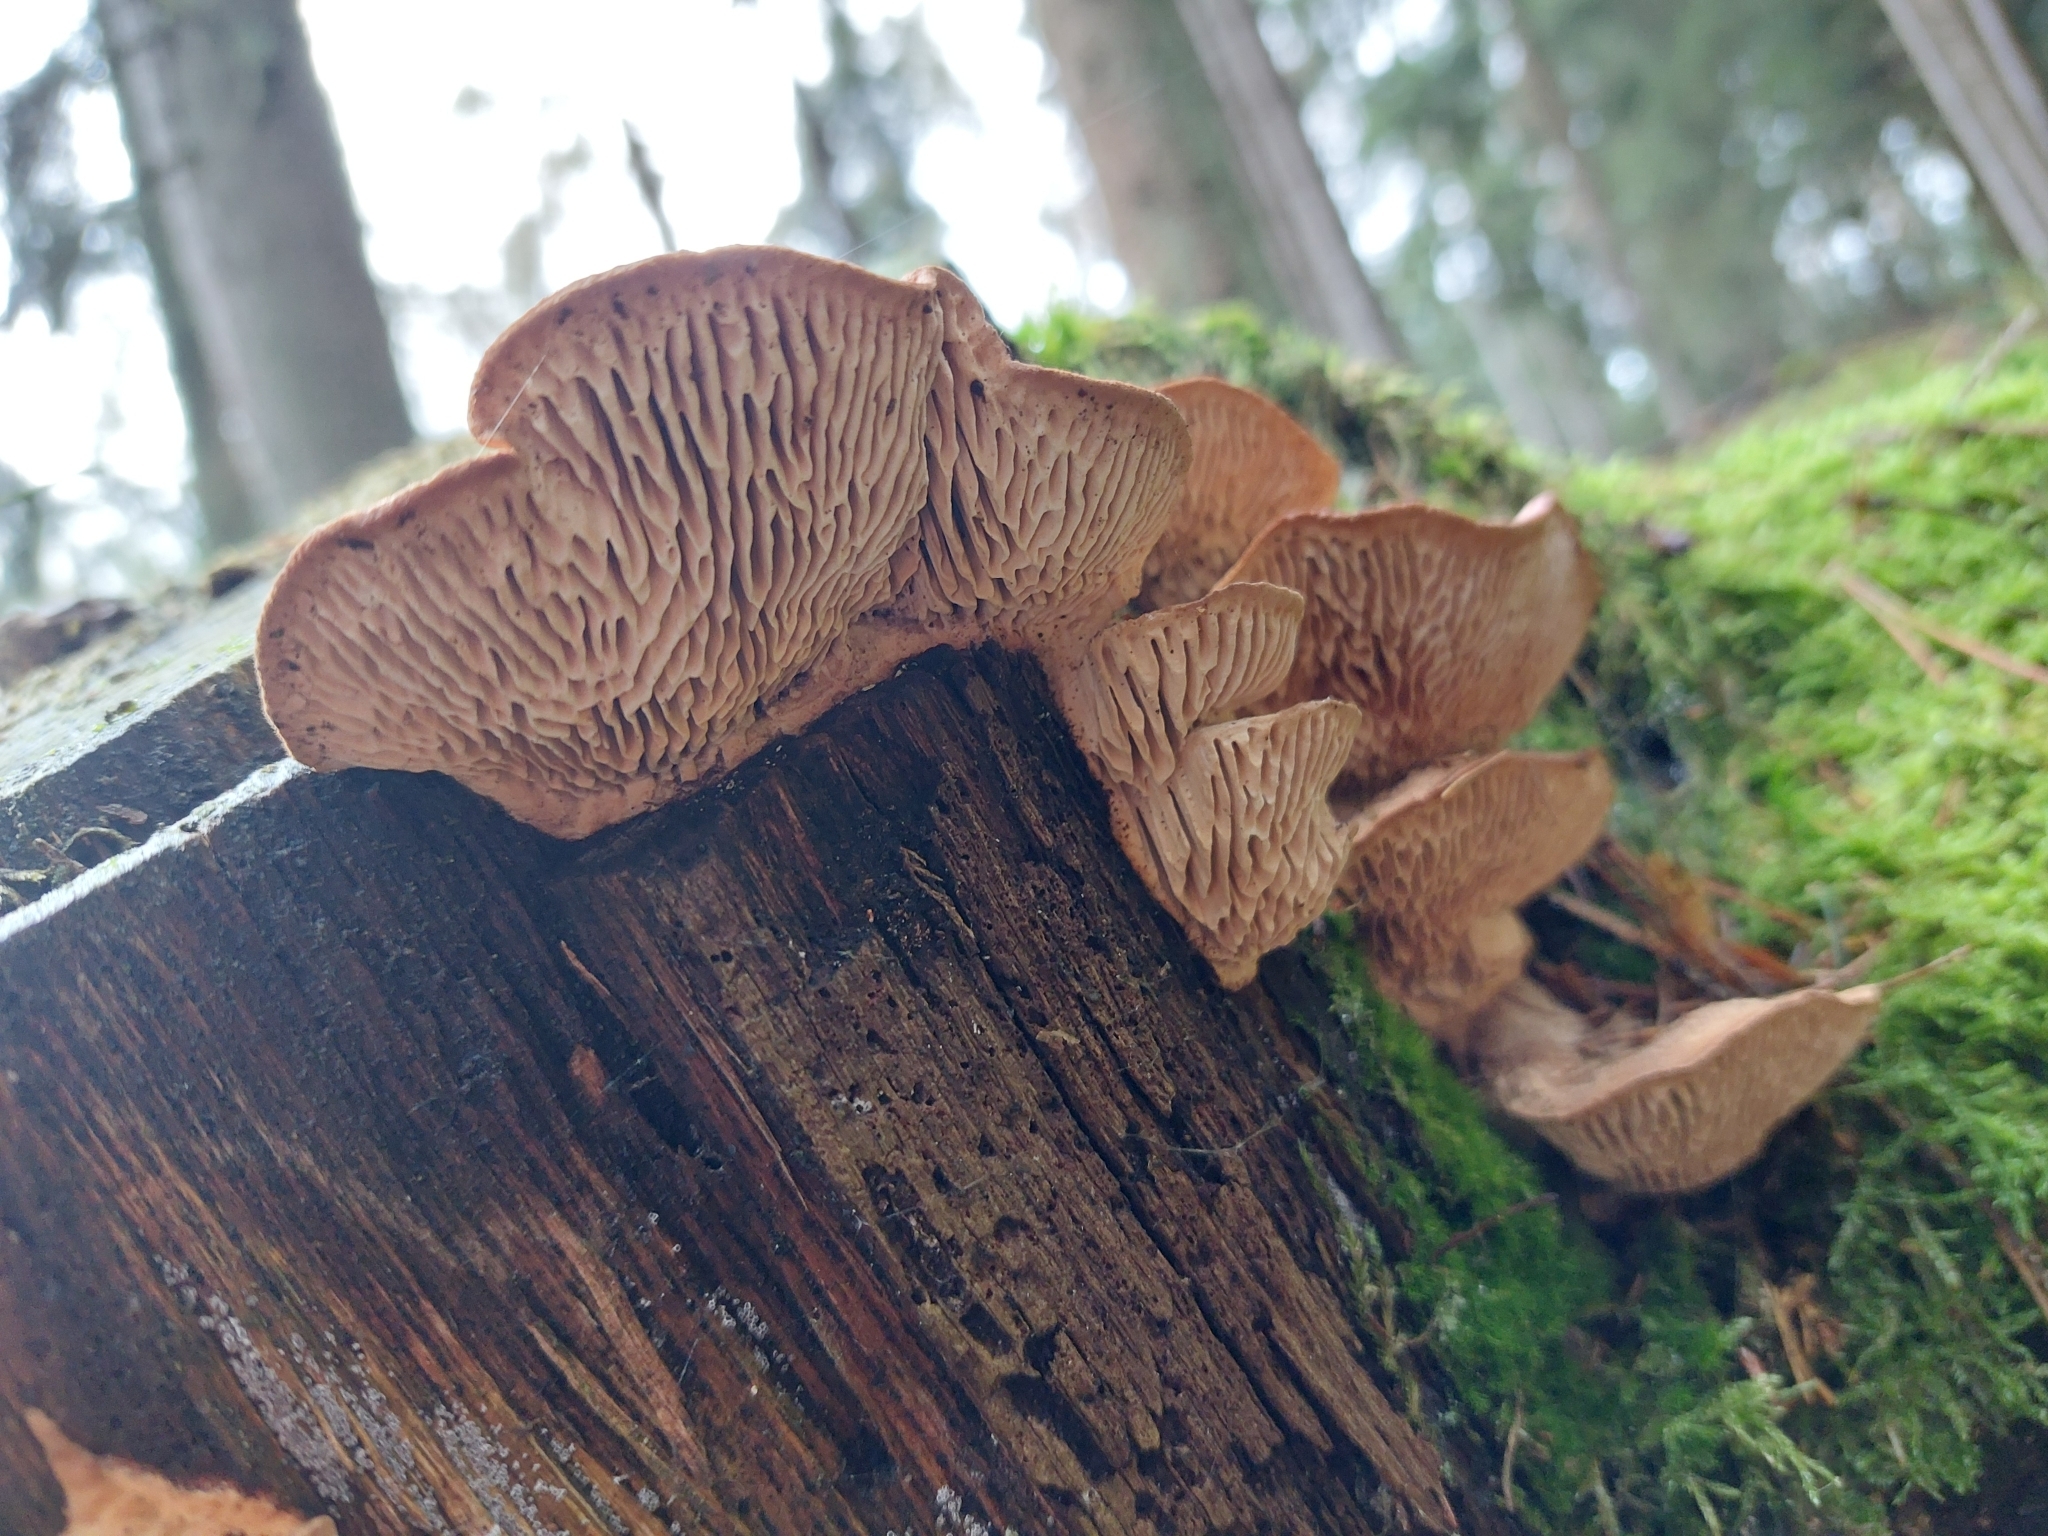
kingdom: Fungi
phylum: Basidiomycota
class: Agaricomycetes
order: Polyporales
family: Fomitopsidaceae
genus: Fomitopsis
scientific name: Fomitopsis
